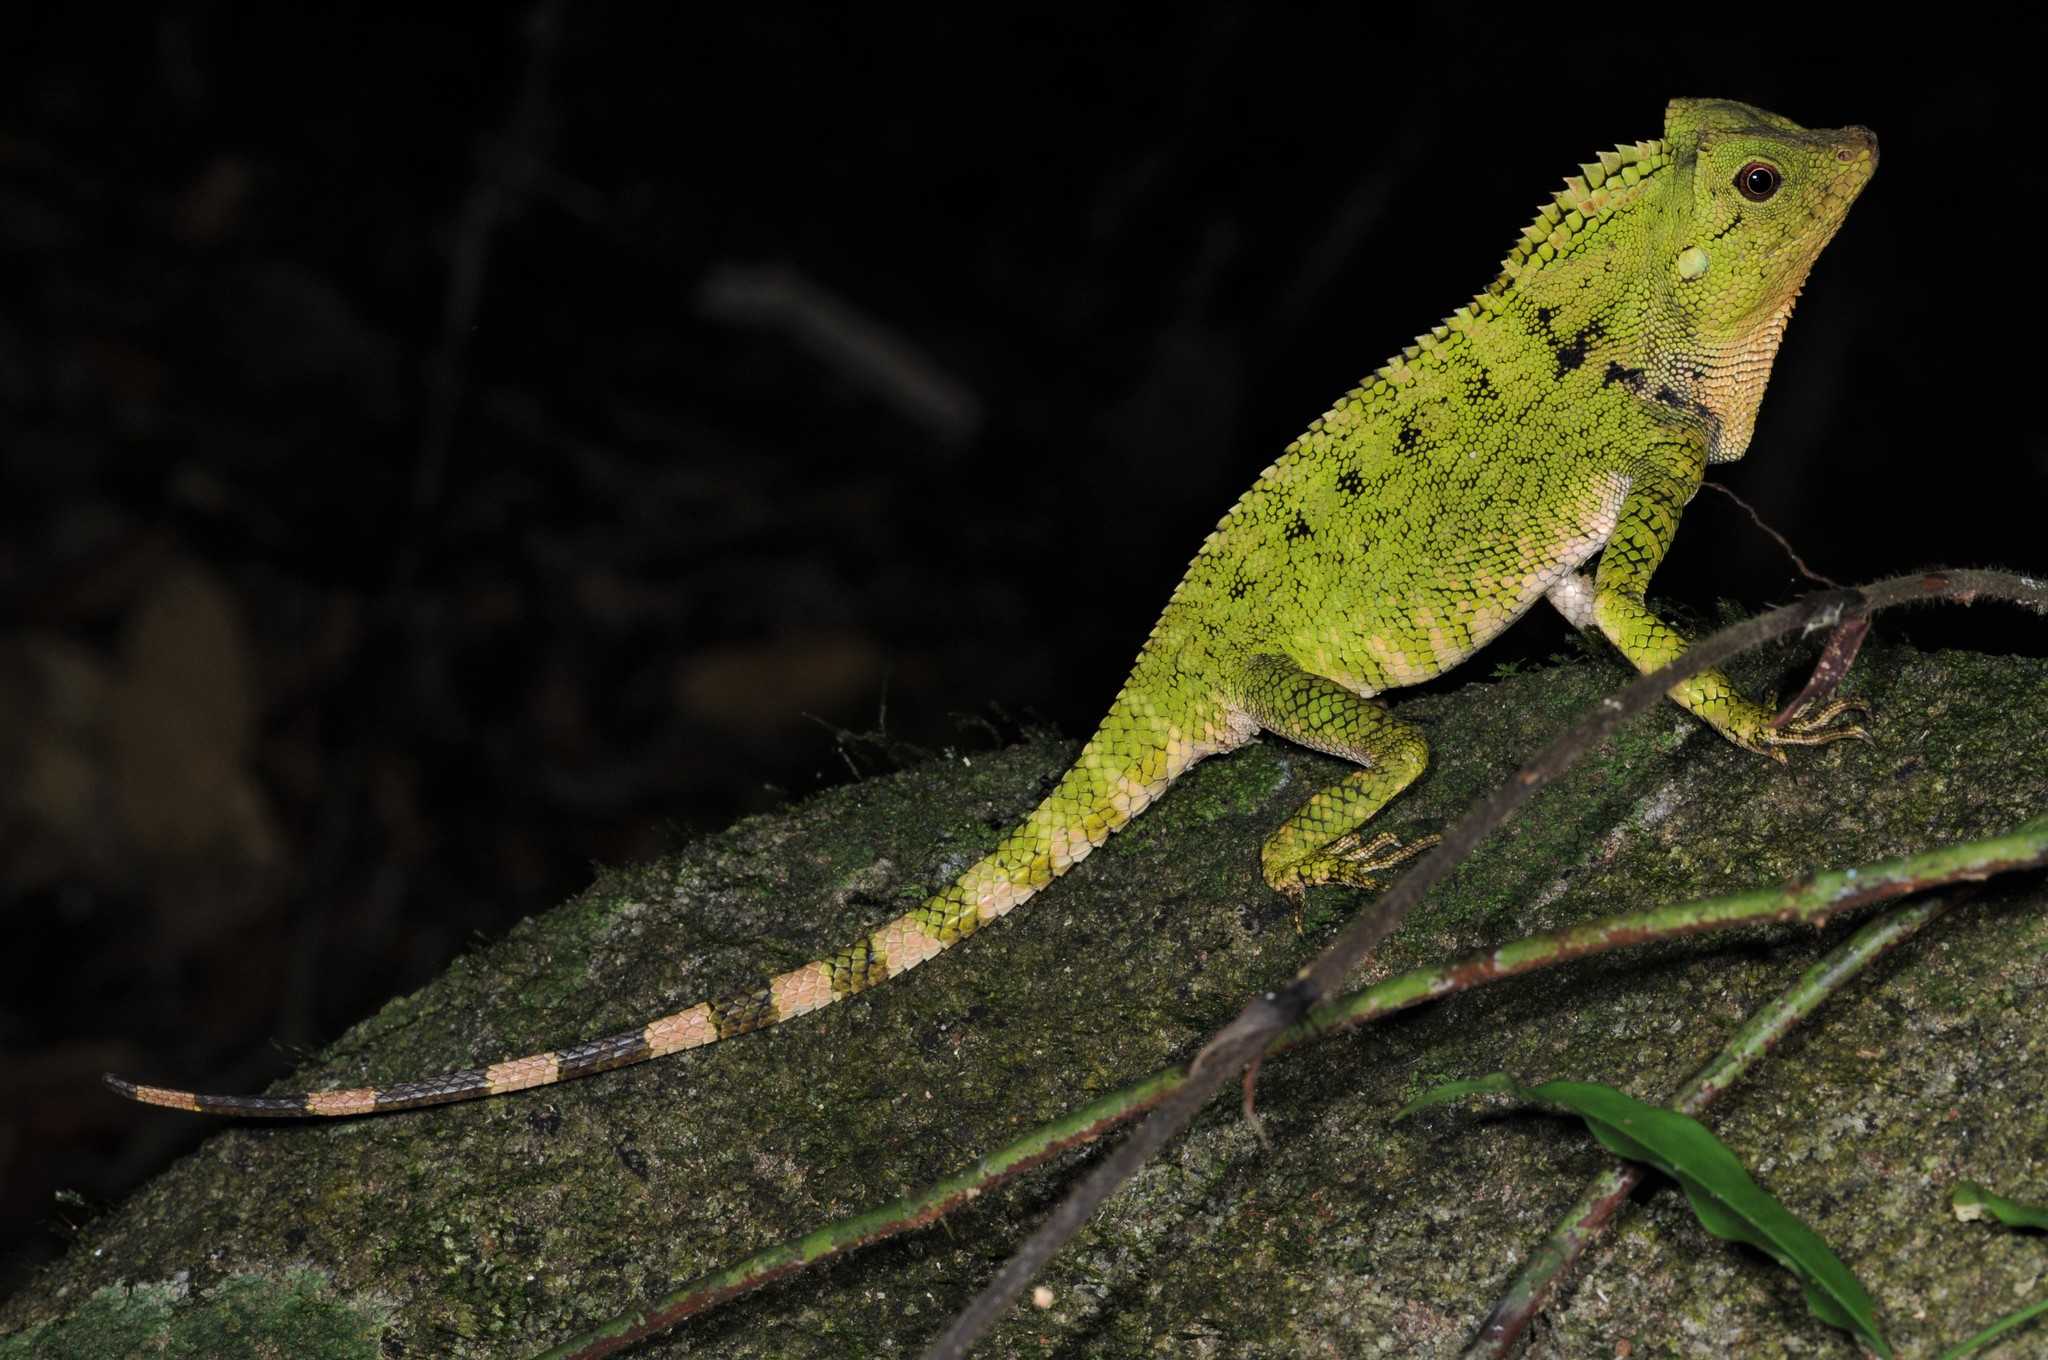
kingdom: Animalia
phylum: Chordata
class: Squamata
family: Agamidae
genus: Gonocephalus
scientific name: Gonocephalus doriae
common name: Doria’s anglehead lizard
